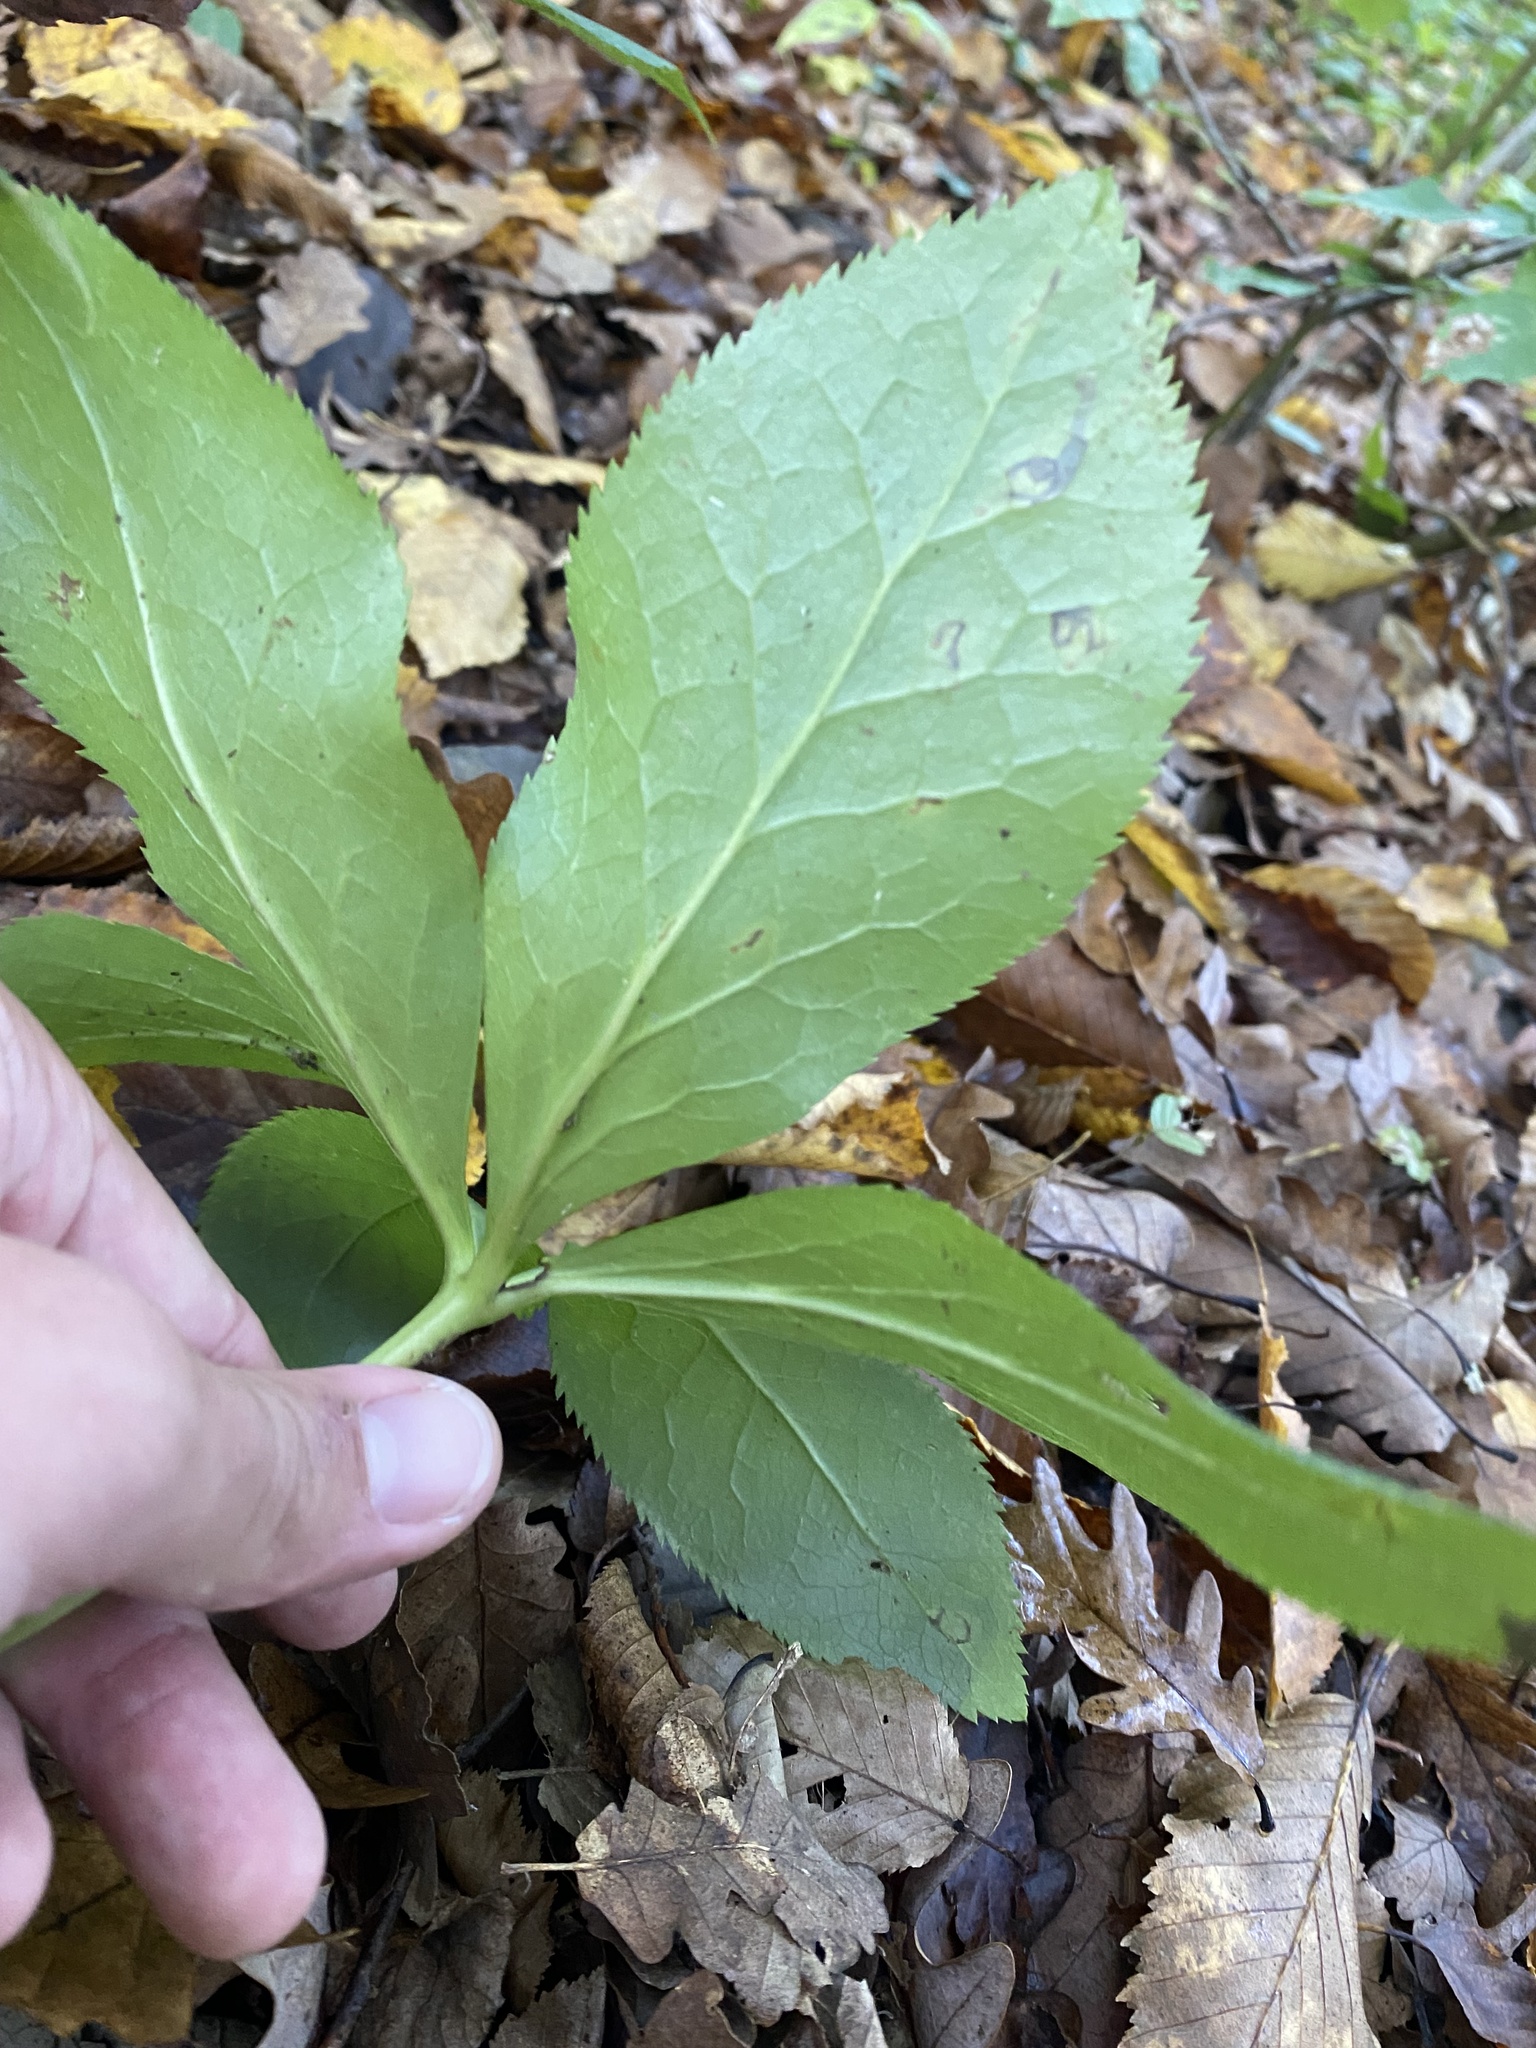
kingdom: Plantae
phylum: Tracheophyta
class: Magnoliopsida
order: Ranunculales
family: Ranunculaceae
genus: Helleborus
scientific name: Helleborus orientalis
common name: Lenten-rose
